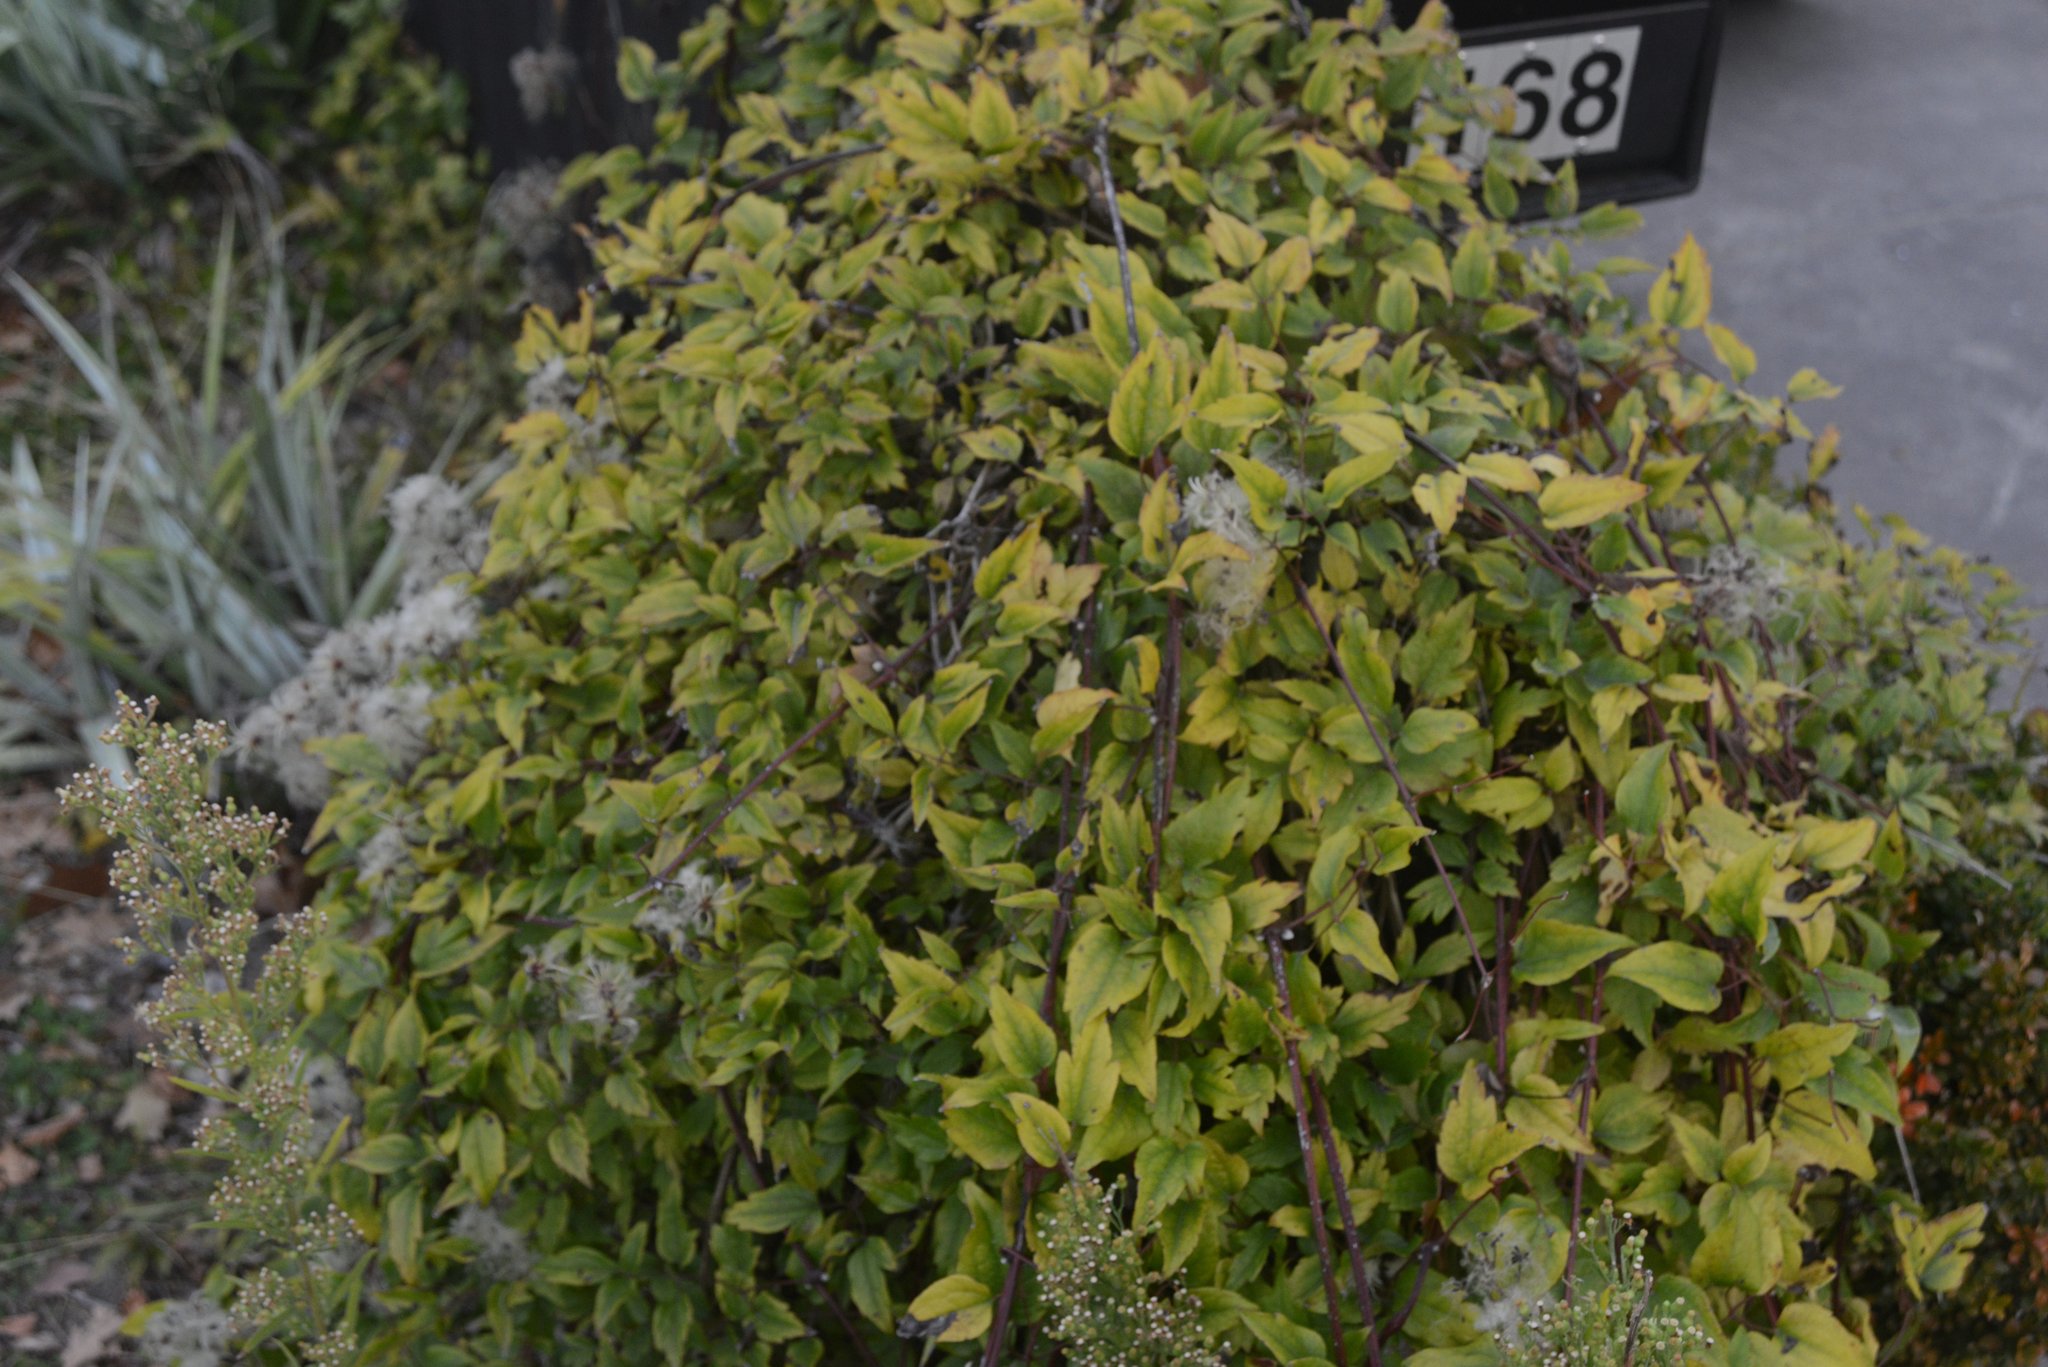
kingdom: Plantae
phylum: Tracheophyta
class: Magnoliopsida
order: Ranunculales
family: Ranunculaceae
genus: Clematis
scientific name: Clematis vitalba
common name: Evergreen clematis
